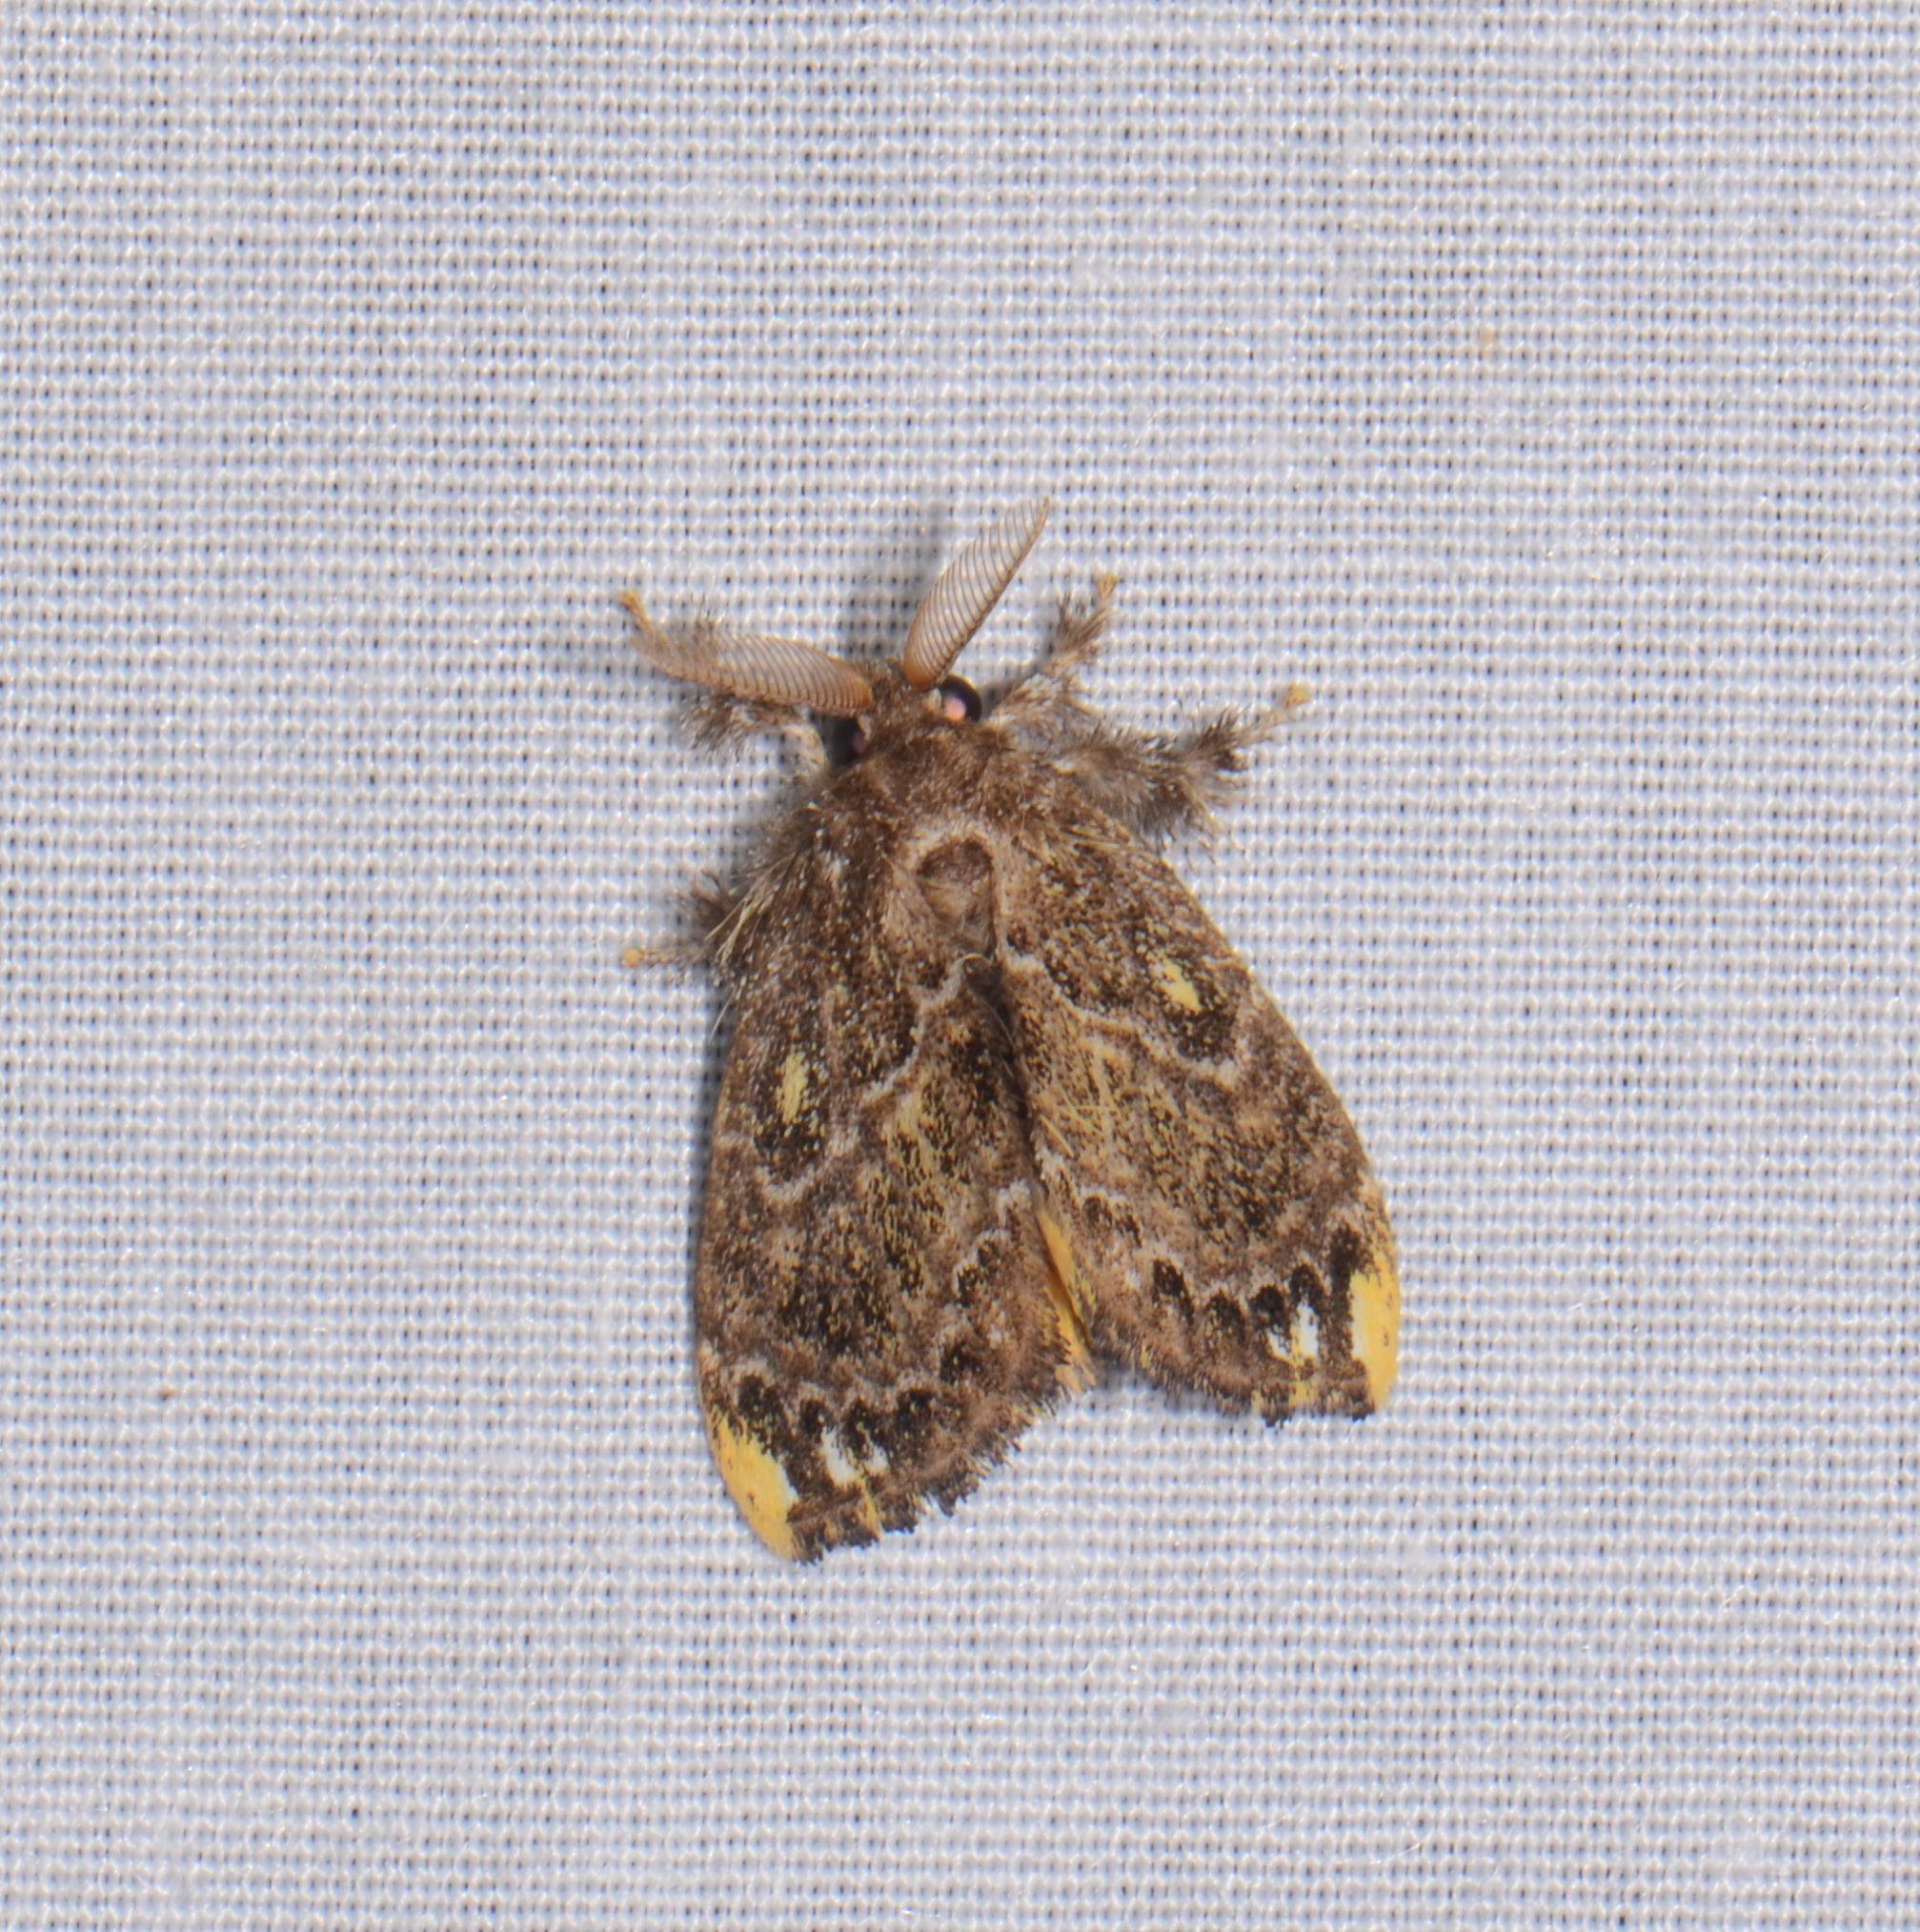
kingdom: Animalia
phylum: Arthropoda
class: Insecta
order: Lepidoptera
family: Erebidae
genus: Cozola
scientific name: Cozola subrana
